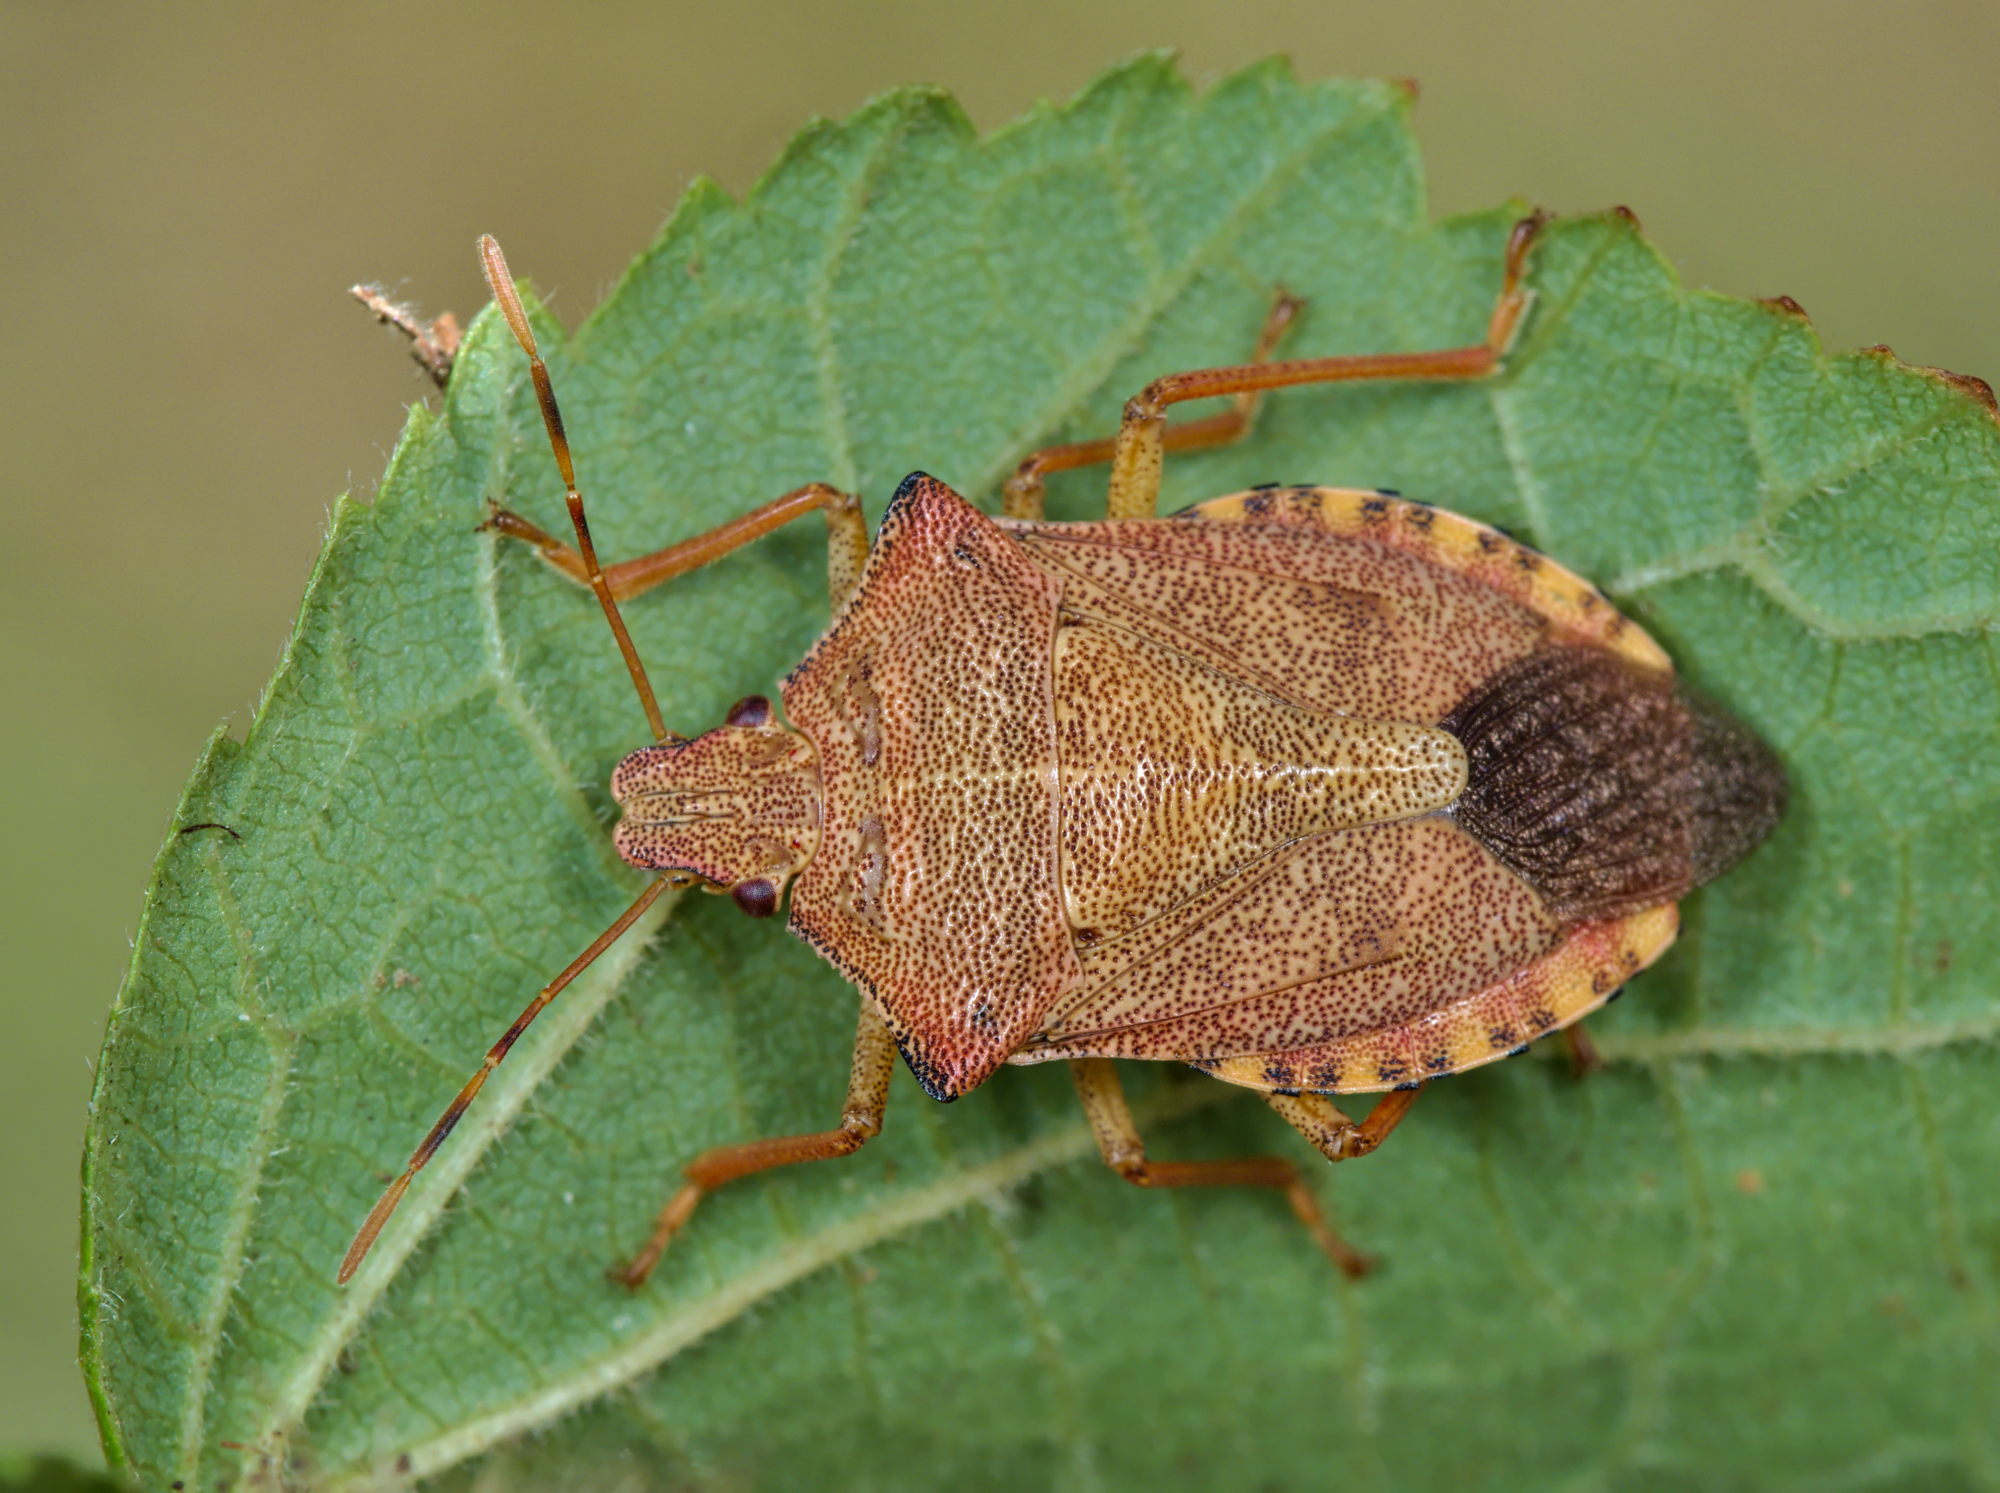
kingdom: Animalia
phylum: Arthropoda
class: Insecta
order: Hemiptera
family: Pentatomidae
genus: Arma
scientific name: Arma custos
